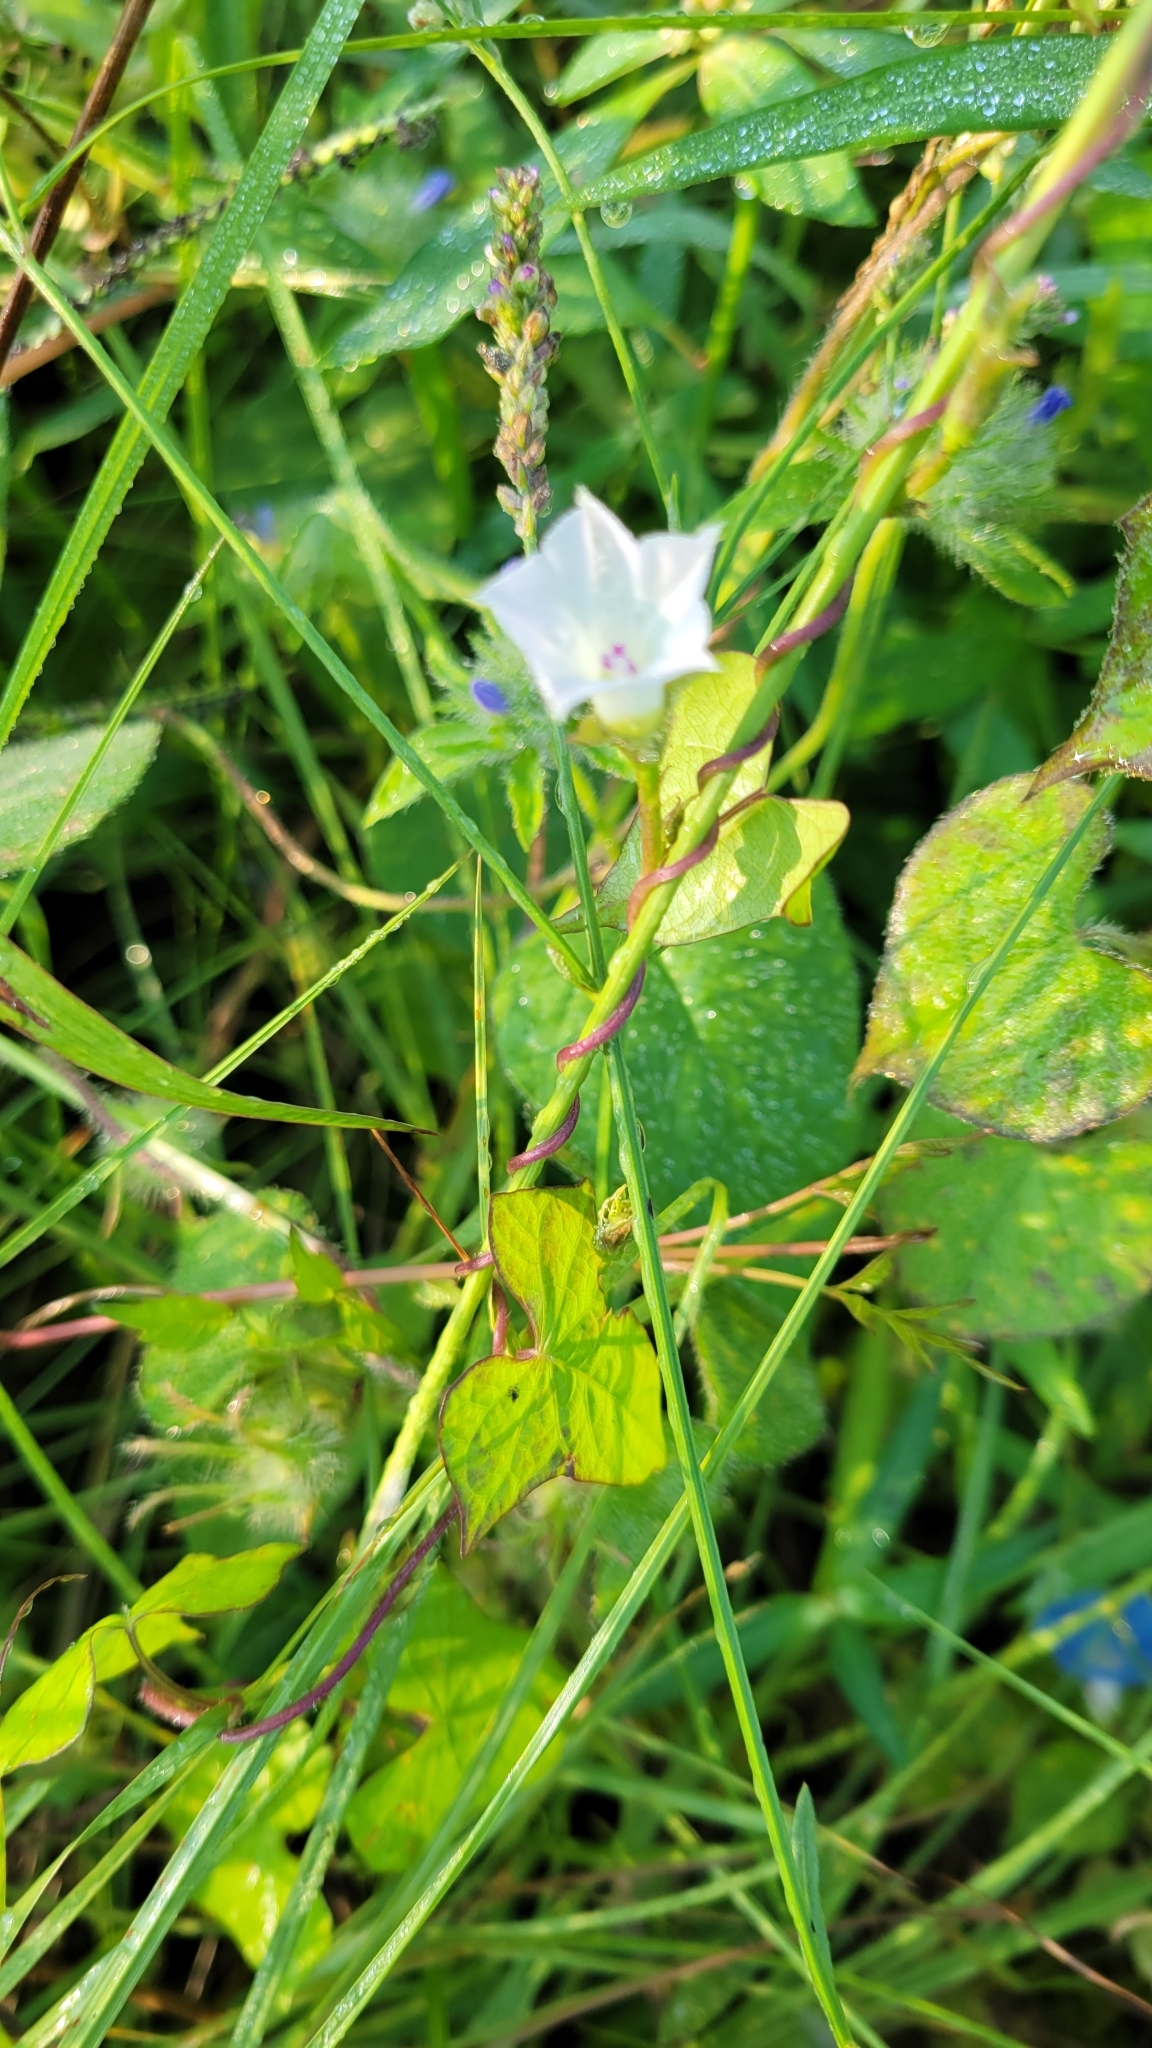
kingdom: Plantae
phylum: Tracheophyta
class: Magnoliopsida
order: Solanales
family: Convolvulaceae
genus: Ipomoea
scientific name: Ipomoea lacunosa
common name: White morning-glory
